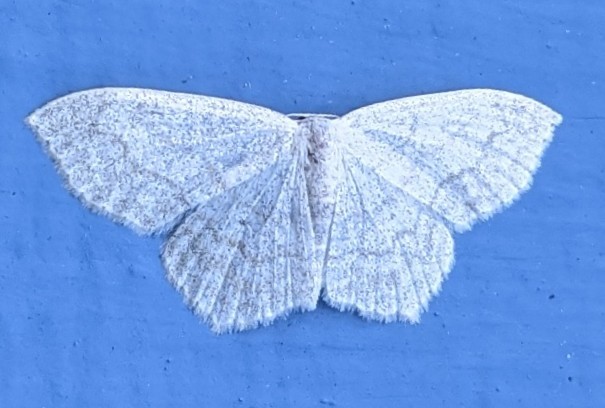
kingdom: Animalia
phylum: Arthropoda
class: Insecta
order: Lepidoptera
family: Geometridae
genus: Scopula
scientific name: Scopula limboundata
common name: Large lace border
